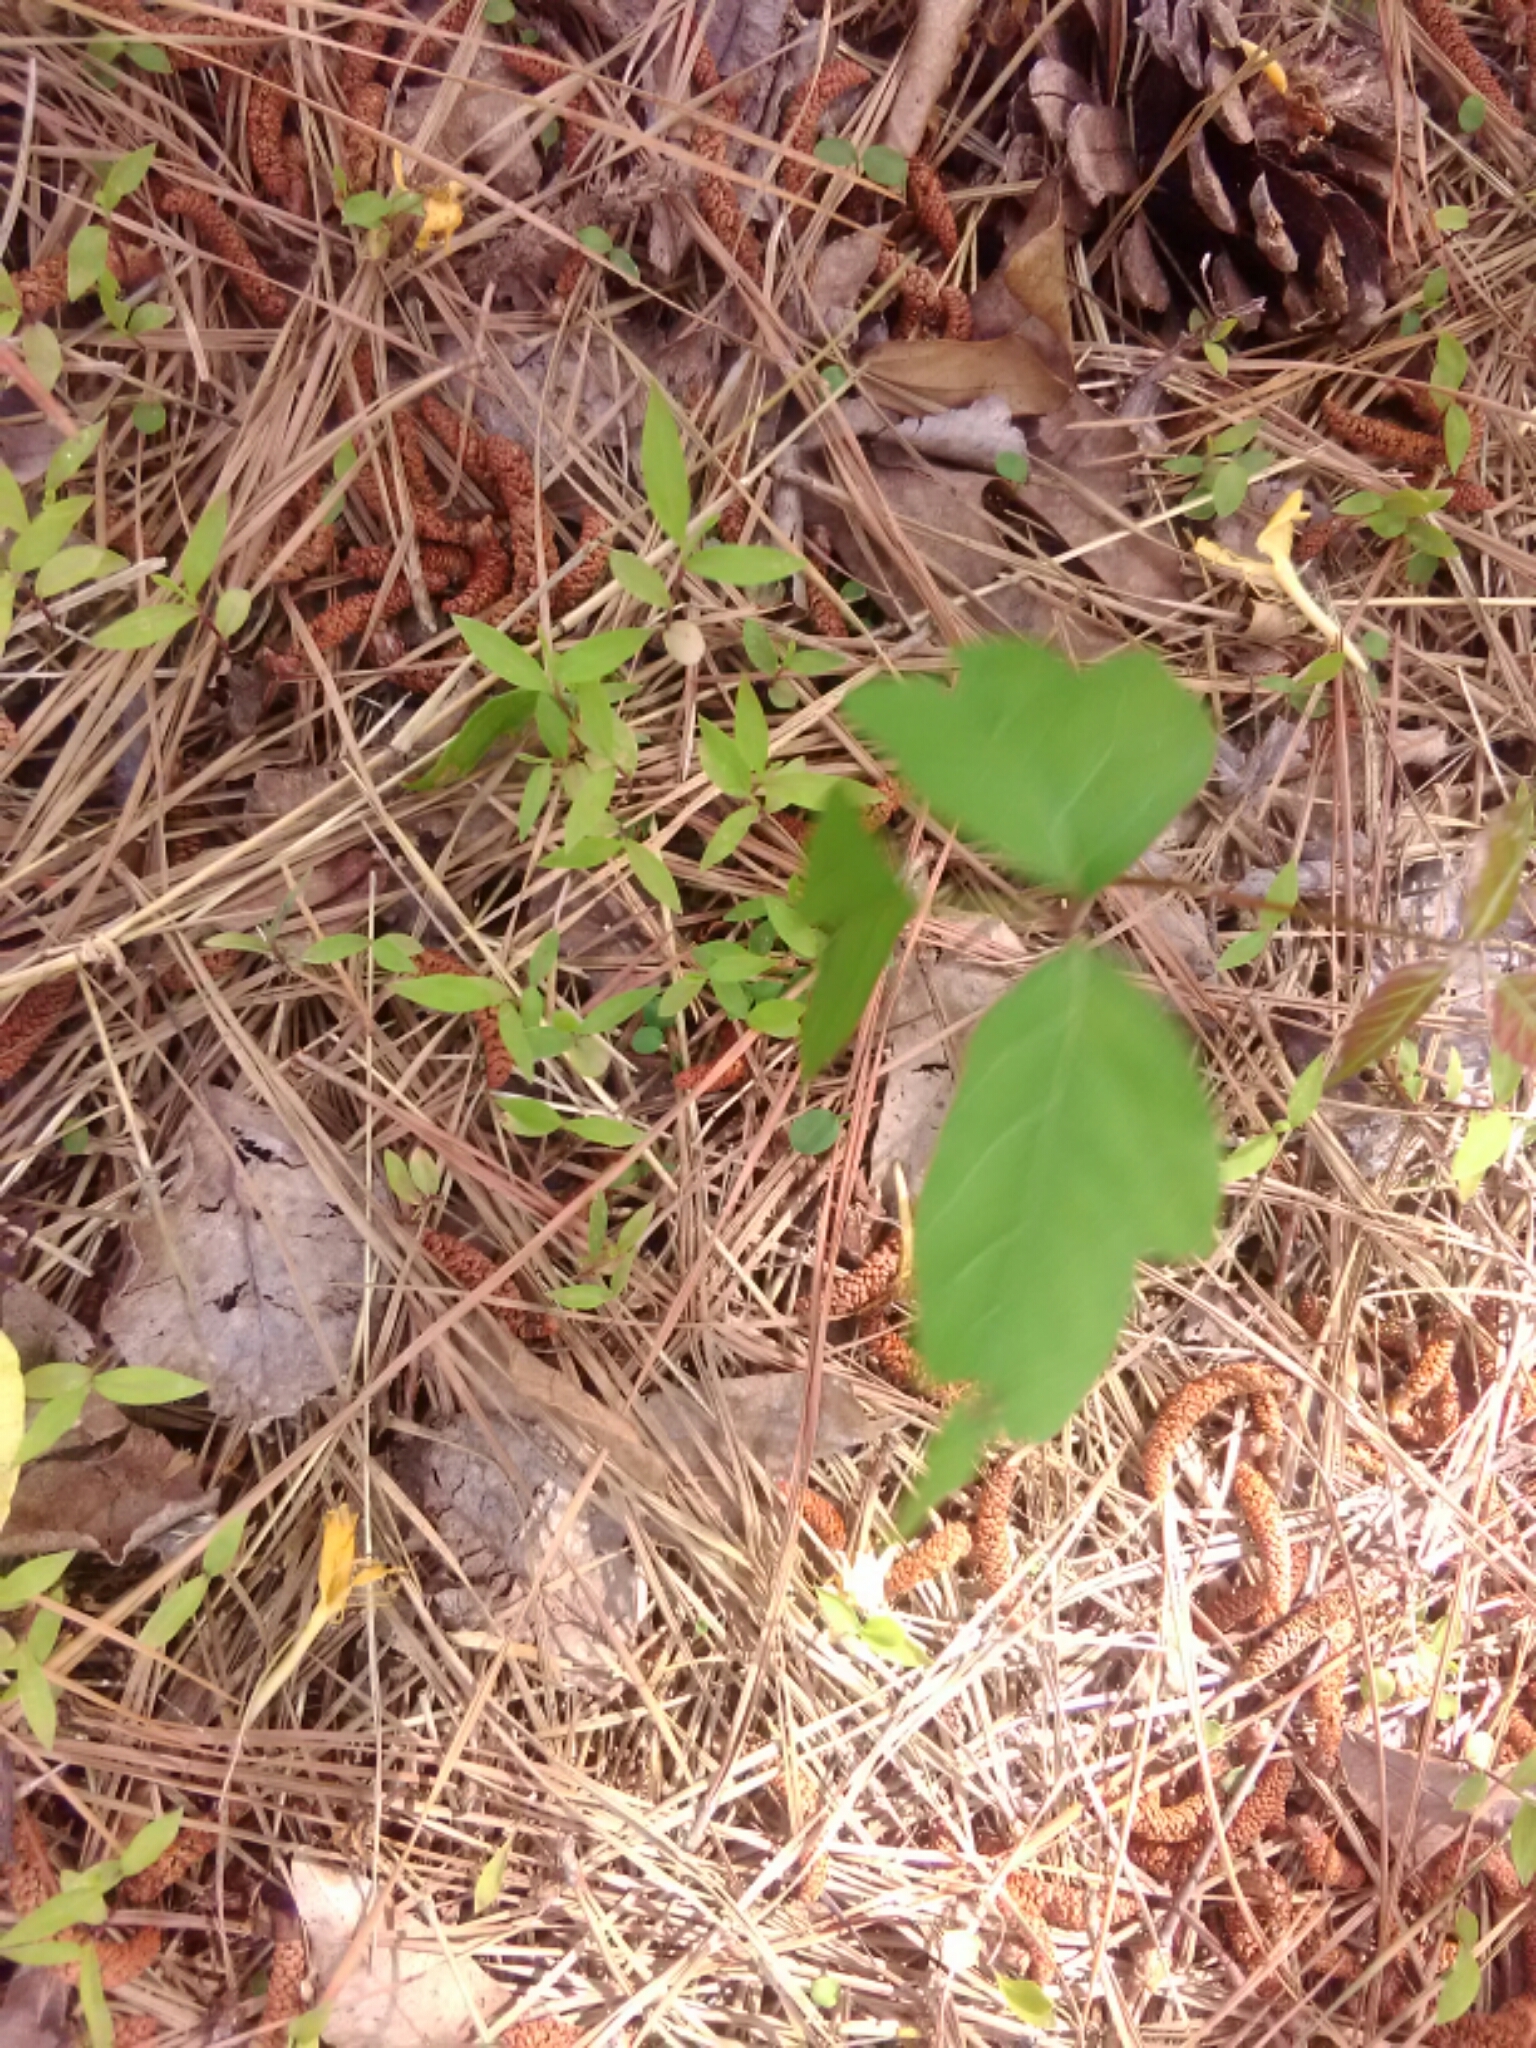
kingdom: Plantae
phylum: Tracheophyta
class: Magnoliopsida
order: Sapindales
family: Anacardiaceae
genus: Toxicodendron
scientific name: Toxicodendron radicans
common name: Poison ivy
